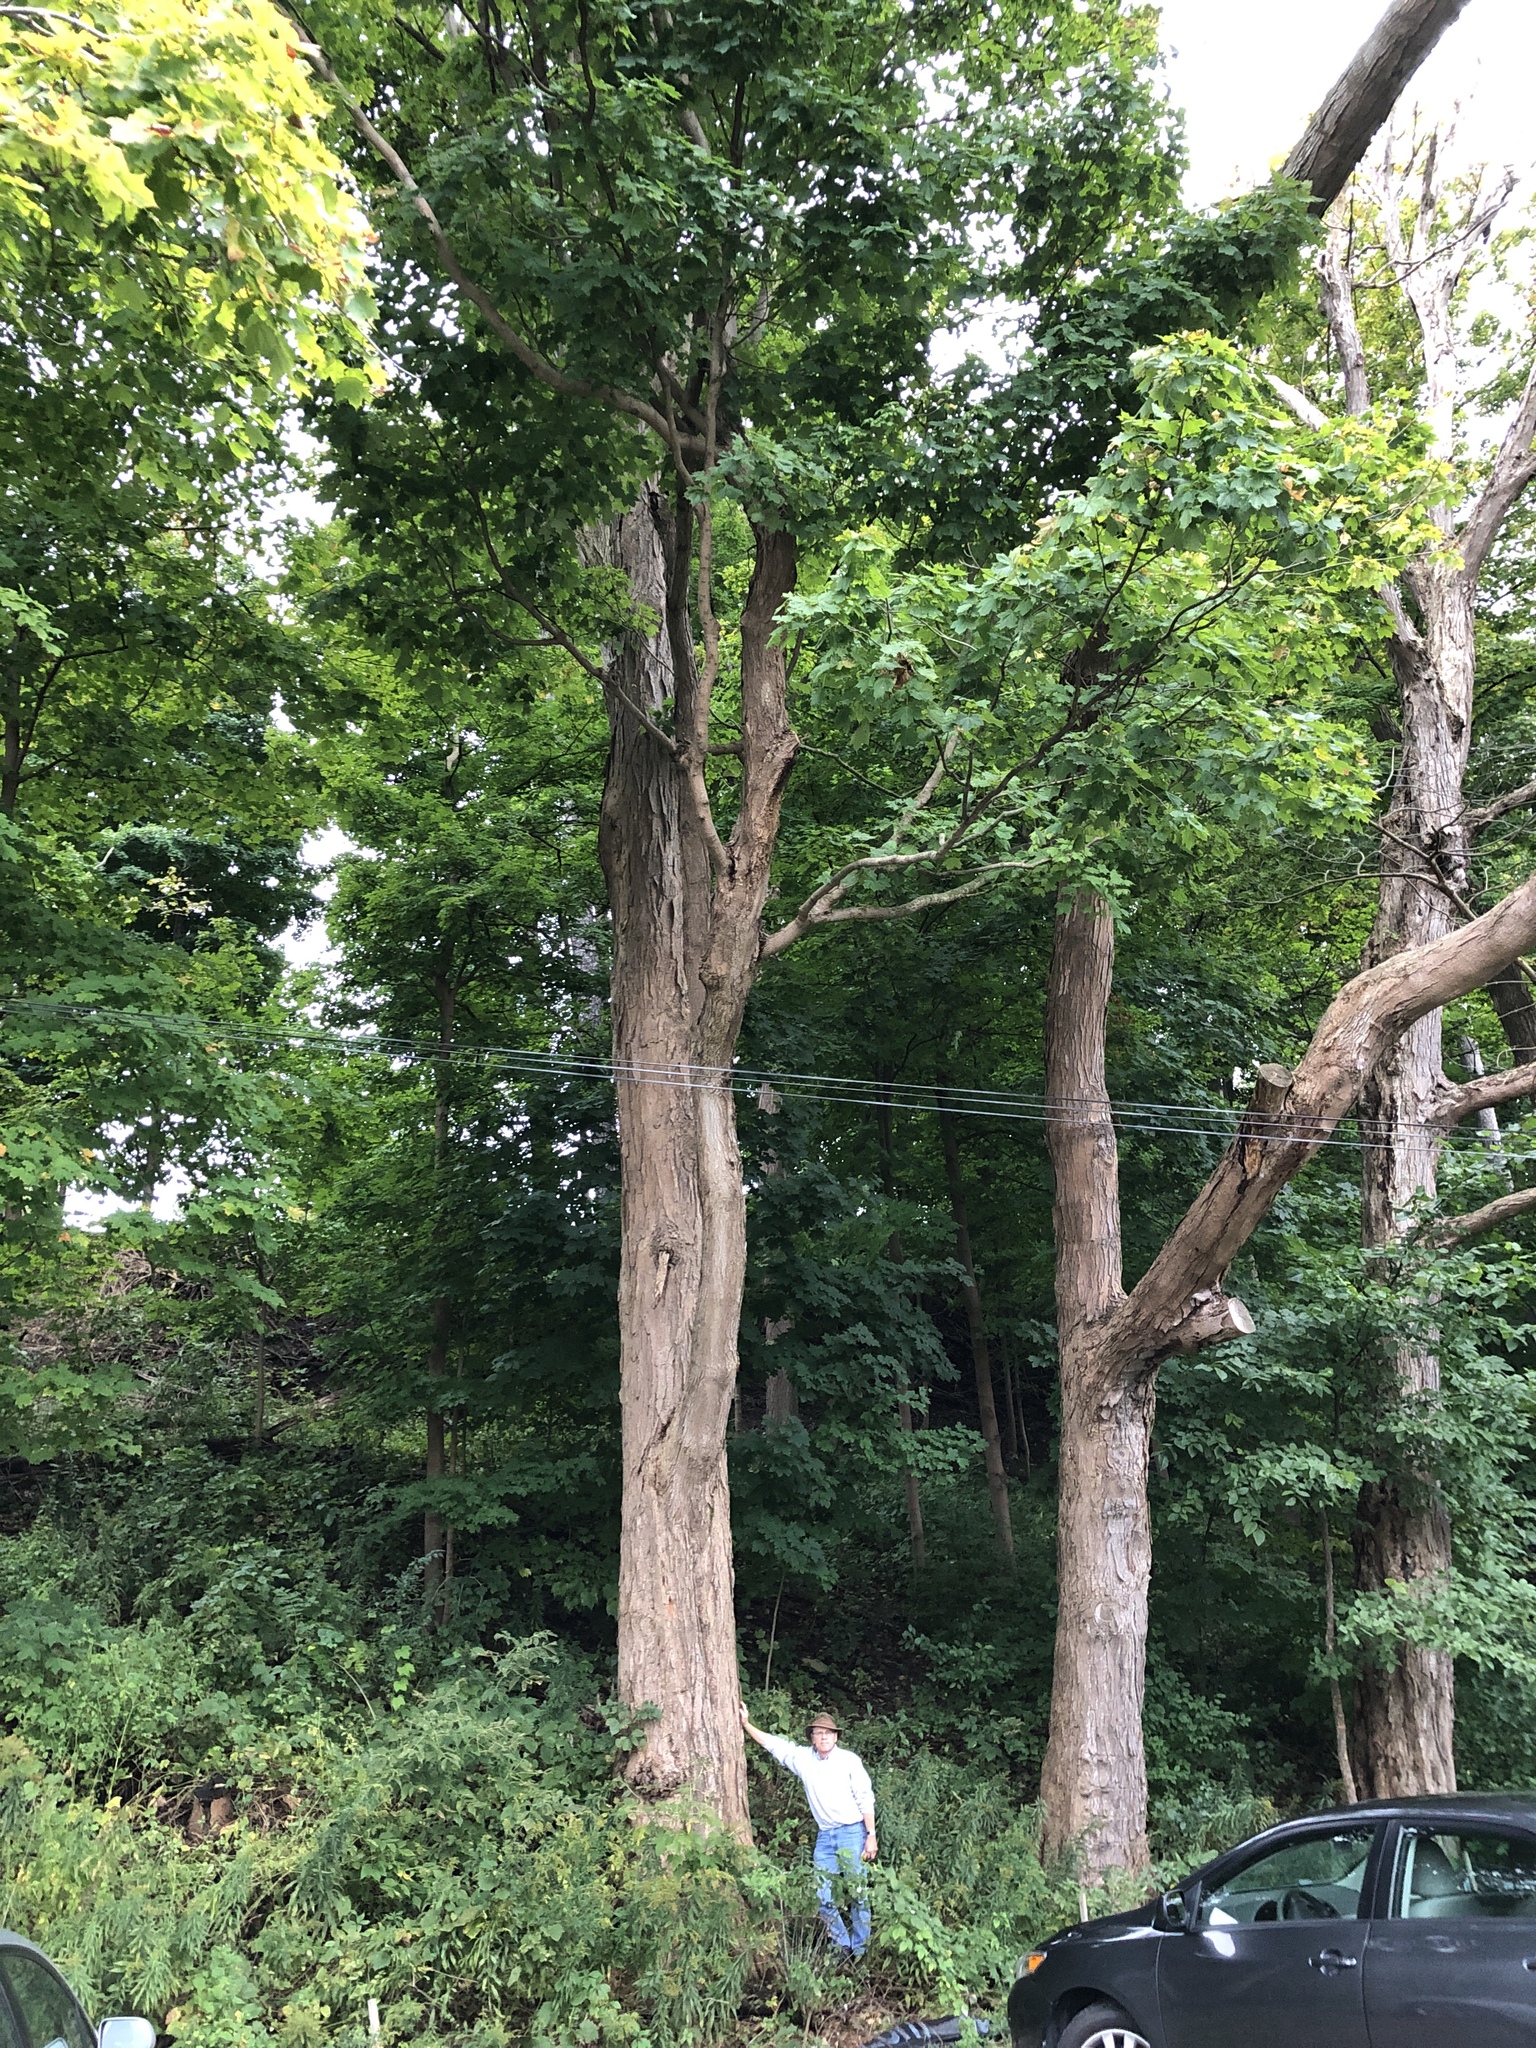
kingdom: Plantae
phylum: Tracheophyta
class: Magnoliopsida
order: Sapindales
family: Sapindaceae
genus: Acer
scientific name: Acer saccharum
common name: Sugar maple
